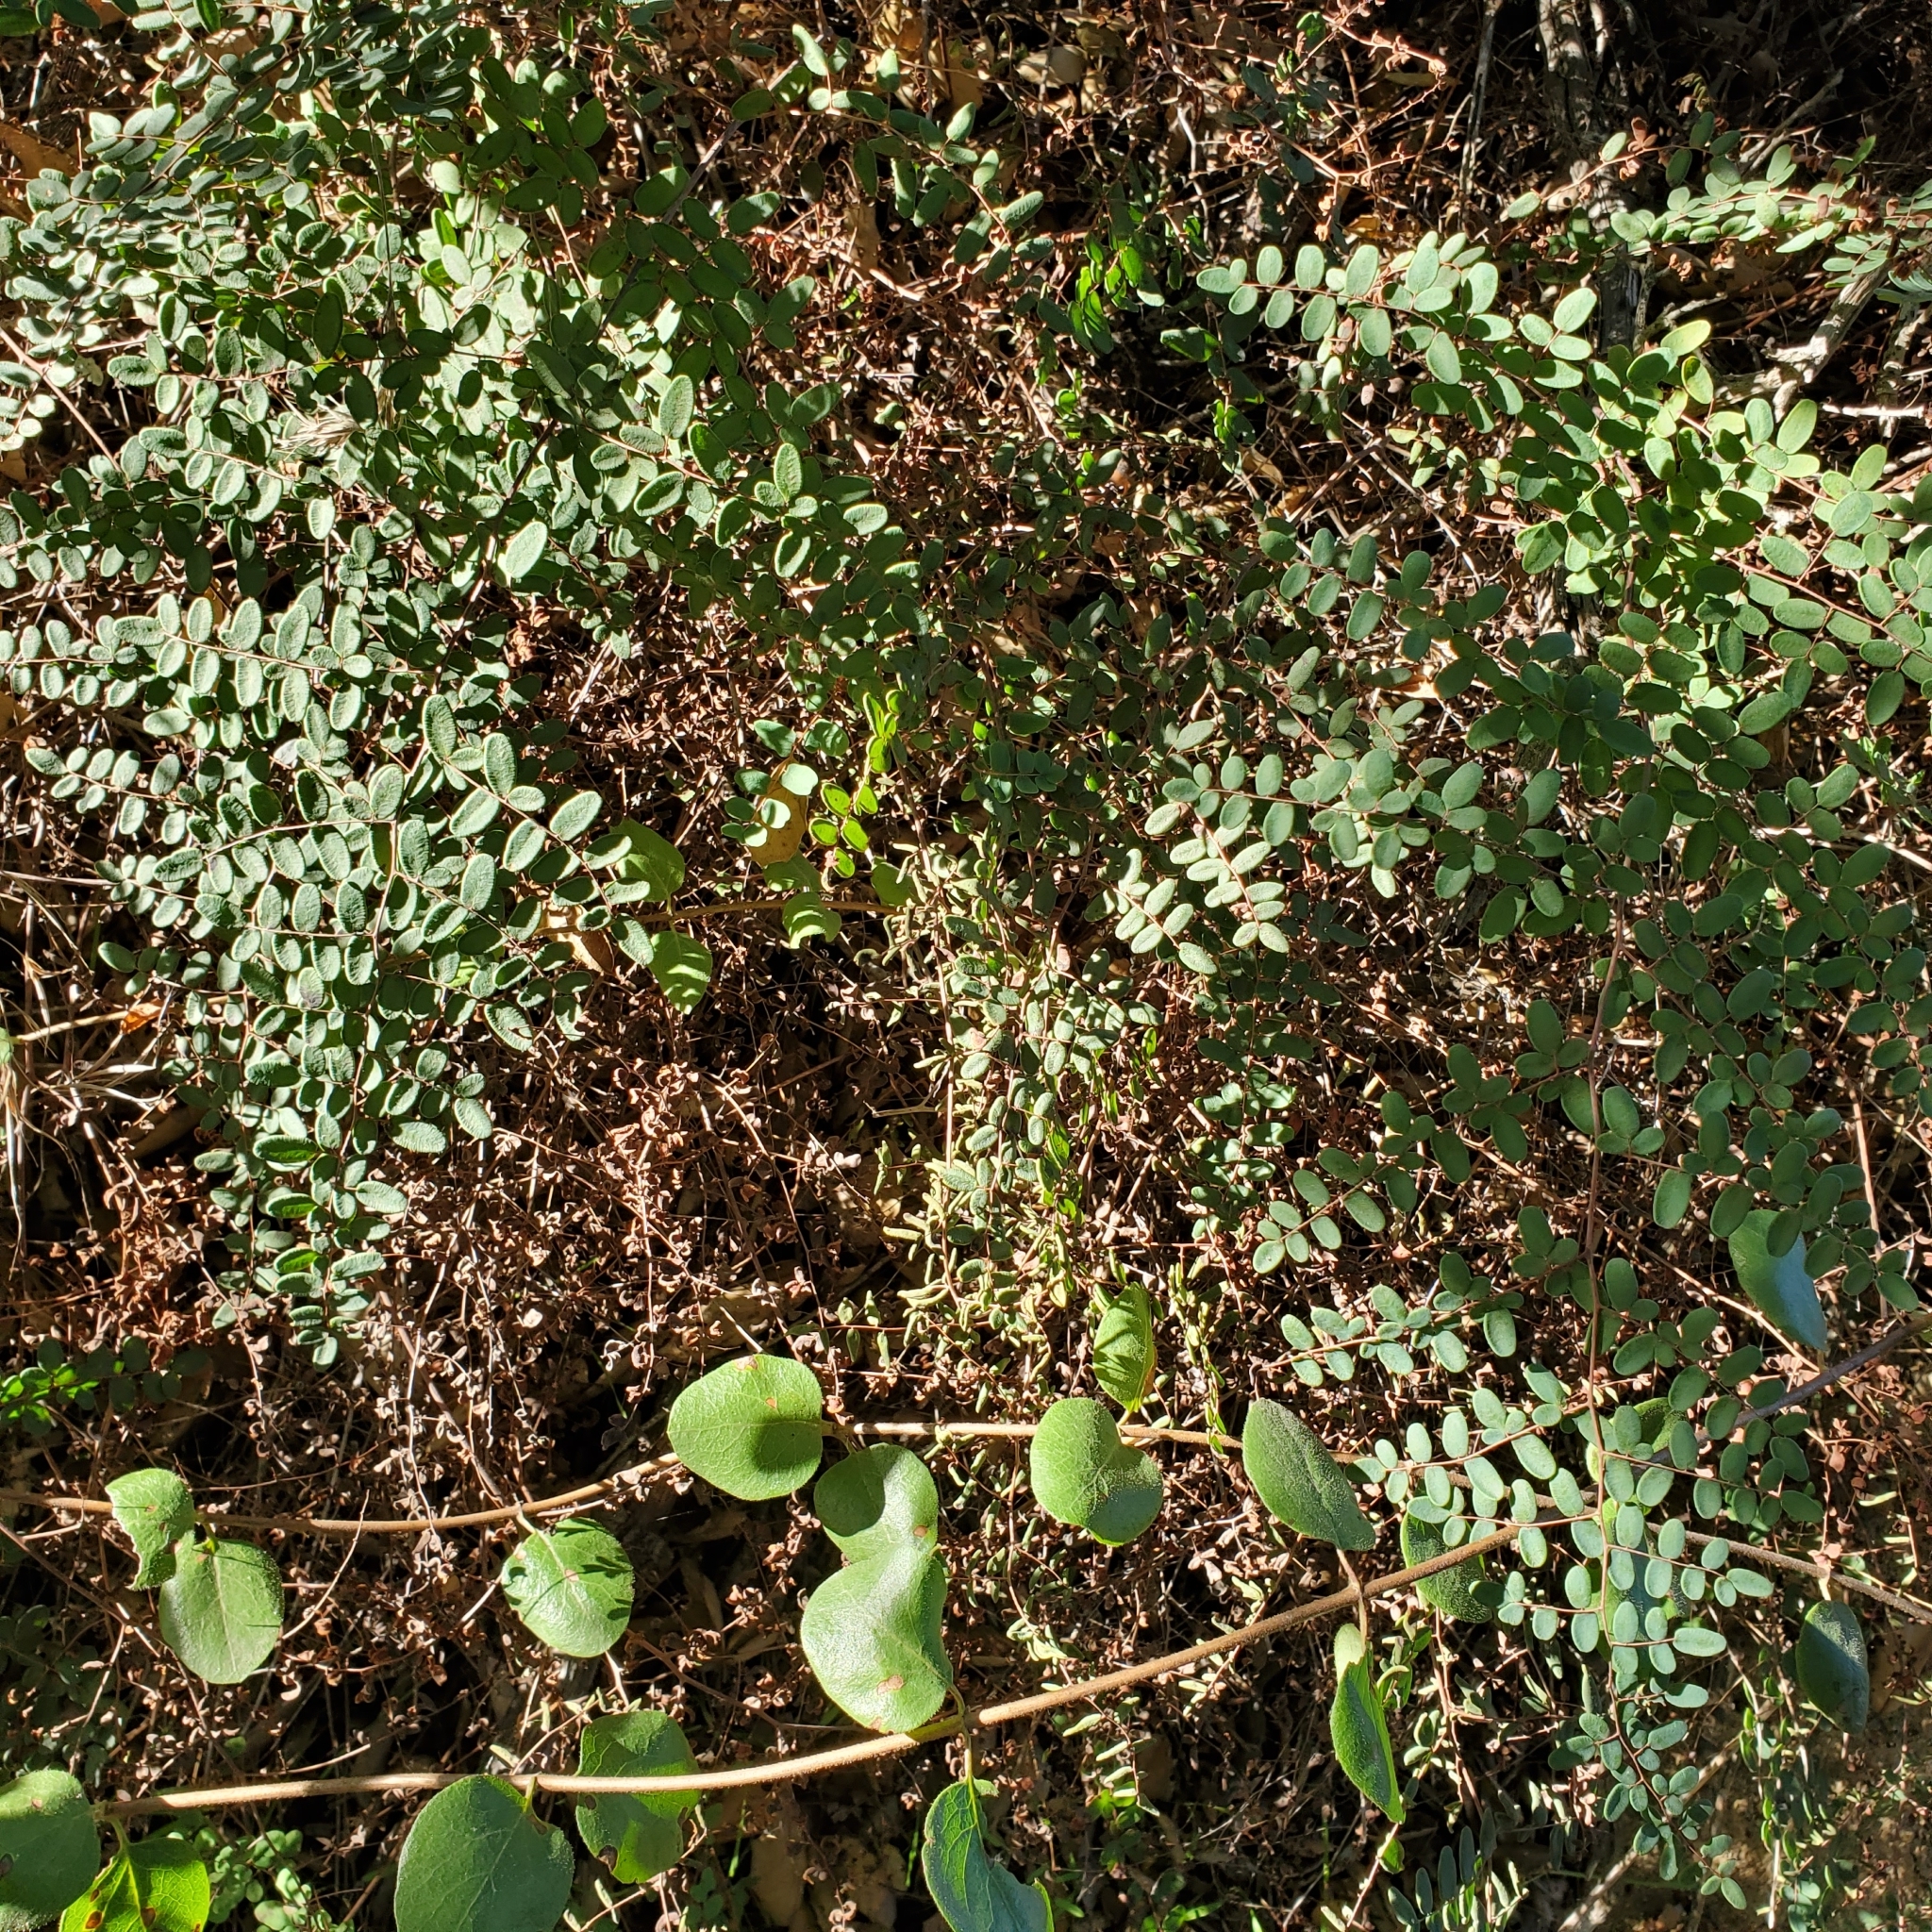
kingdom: Plantae
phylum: Tracheophyta
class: Polypodiopsida
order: Polypodiales
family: Pteridaceae
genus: Pellaea
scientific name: Pellaea andromedifolia
